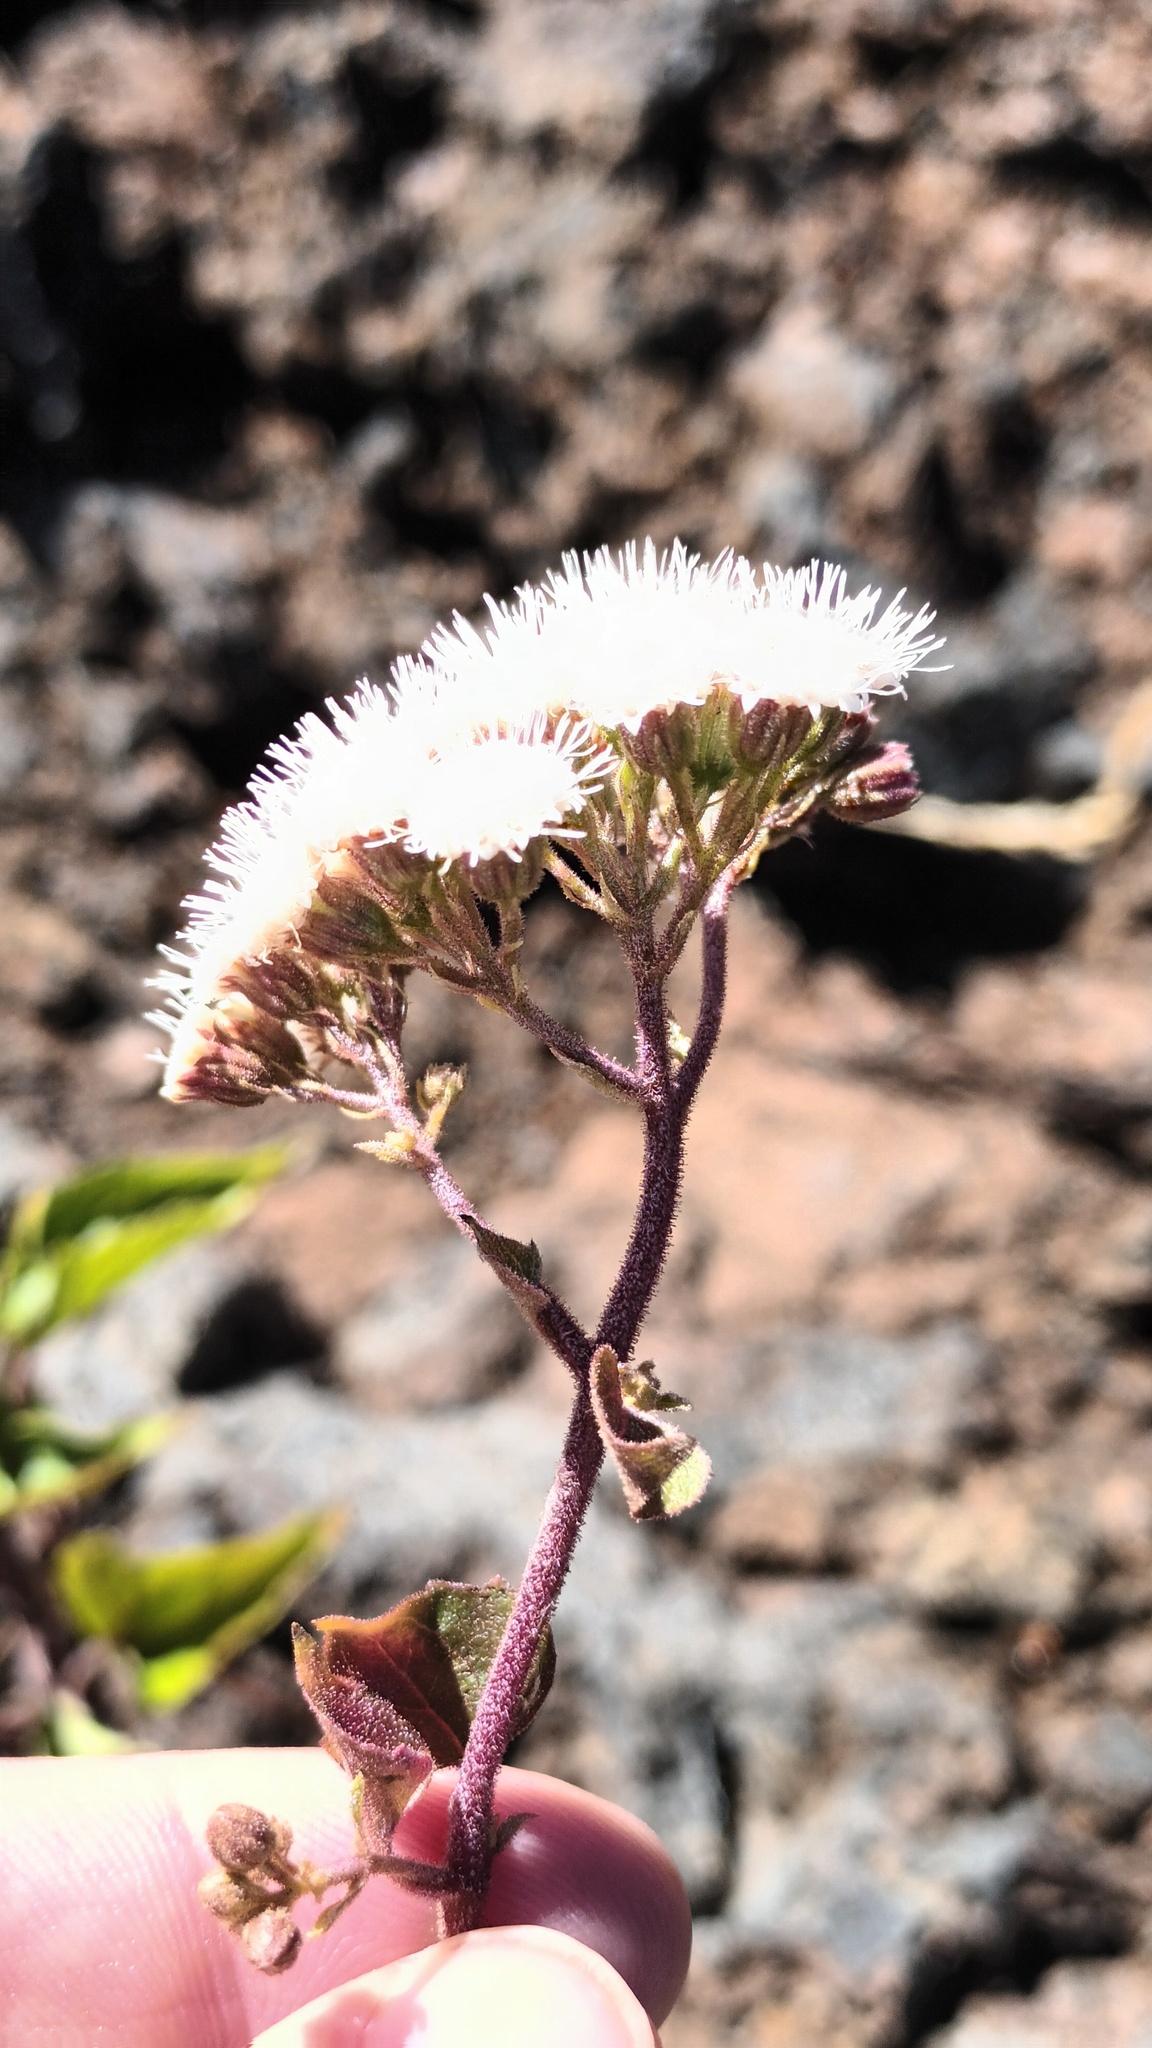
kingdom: Plantae
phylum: Tracheophyta
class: Magnoliopsida
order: Asterales
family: Asteraceae
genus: Ageratina
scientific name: Ageratina adenophora
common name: Sticky snakeroot
